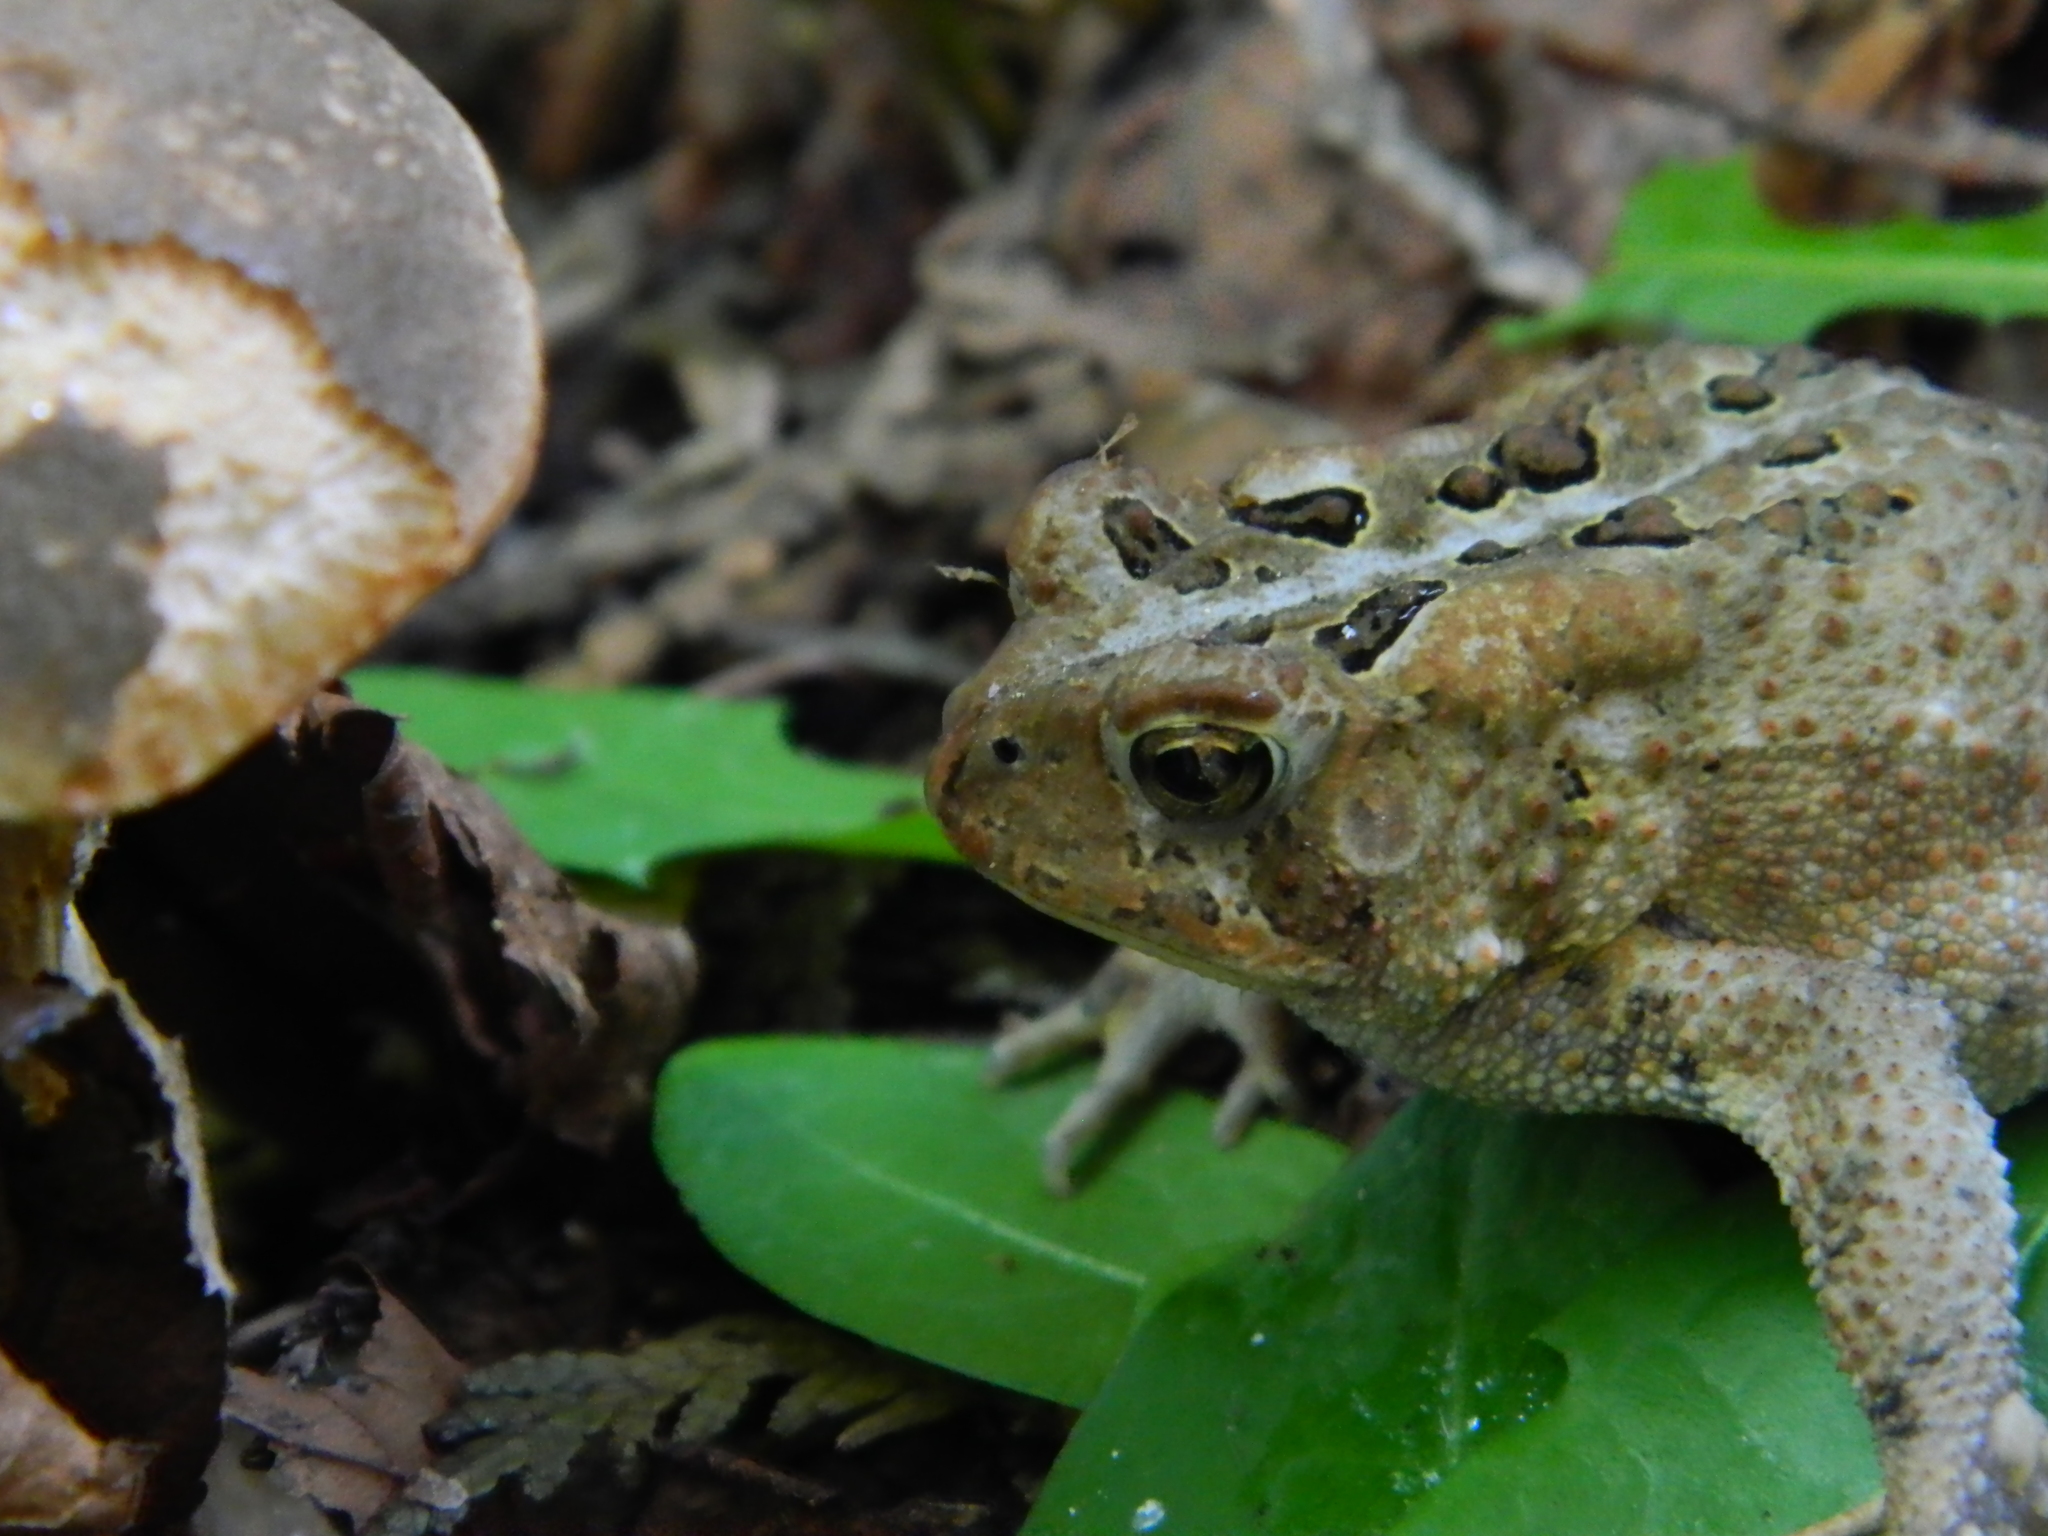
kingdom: Animalia
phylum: Chordata
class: Amphibia
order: Anura
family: Bufonidae
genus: Anaxyrus
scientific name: Anaxyrus americanus
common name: American toad
